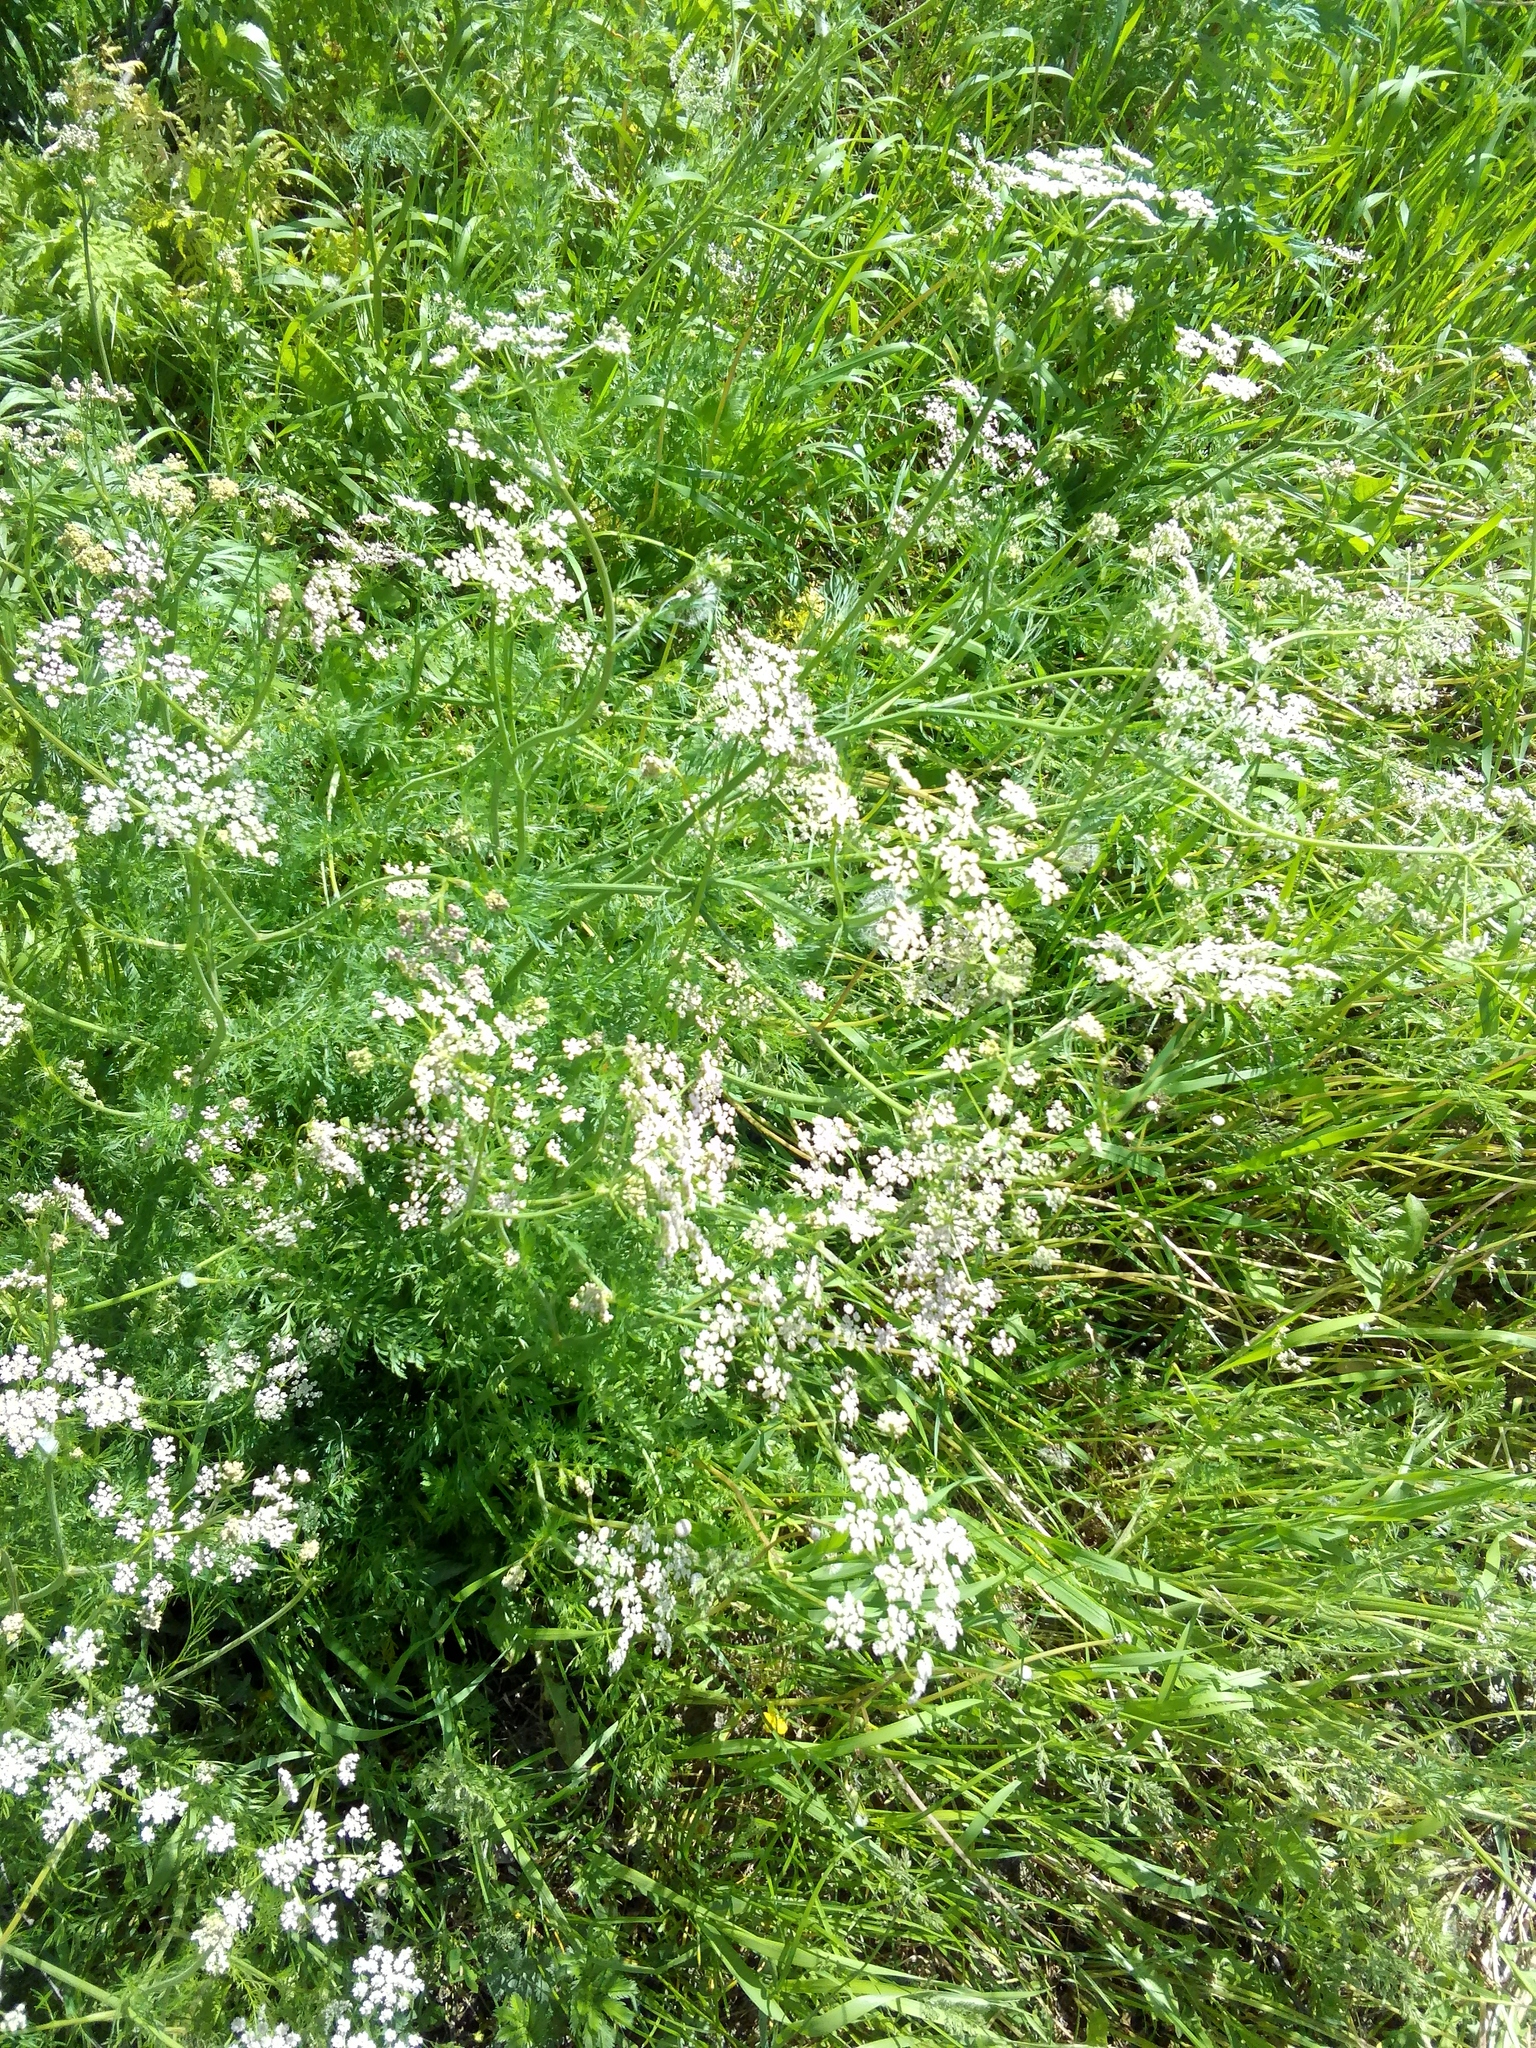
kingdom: Plantae
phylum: Tracheophyta
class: Magnoliopsida
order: Apiales
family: Apiaceae
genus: Carum
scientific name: Carum carvi
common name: Caraway
